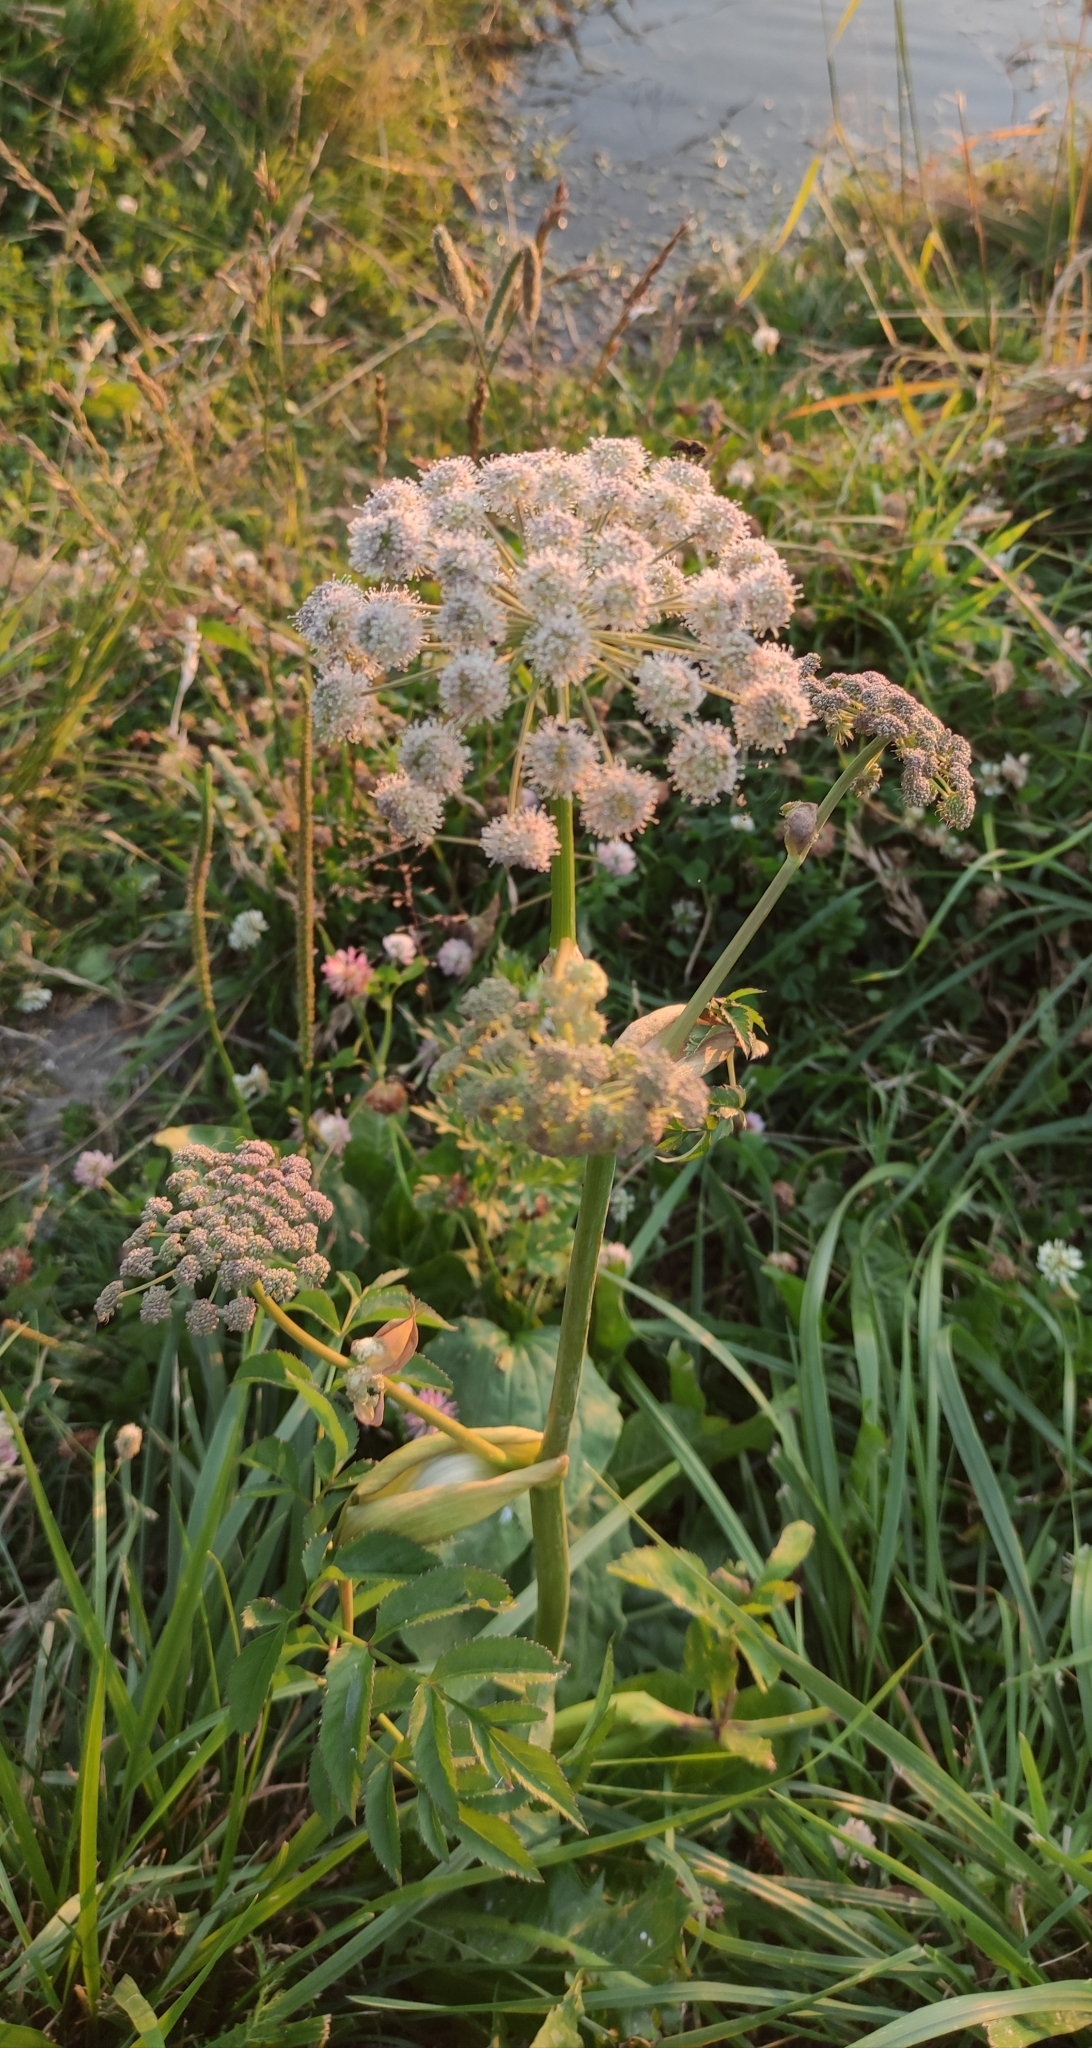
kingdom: Plantae
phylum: Tracheophyta
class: Magnoliopsida
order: Apiales
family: Apiaceae
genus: Angelica
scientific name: Angelica sylvestris
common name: Wild angelica
